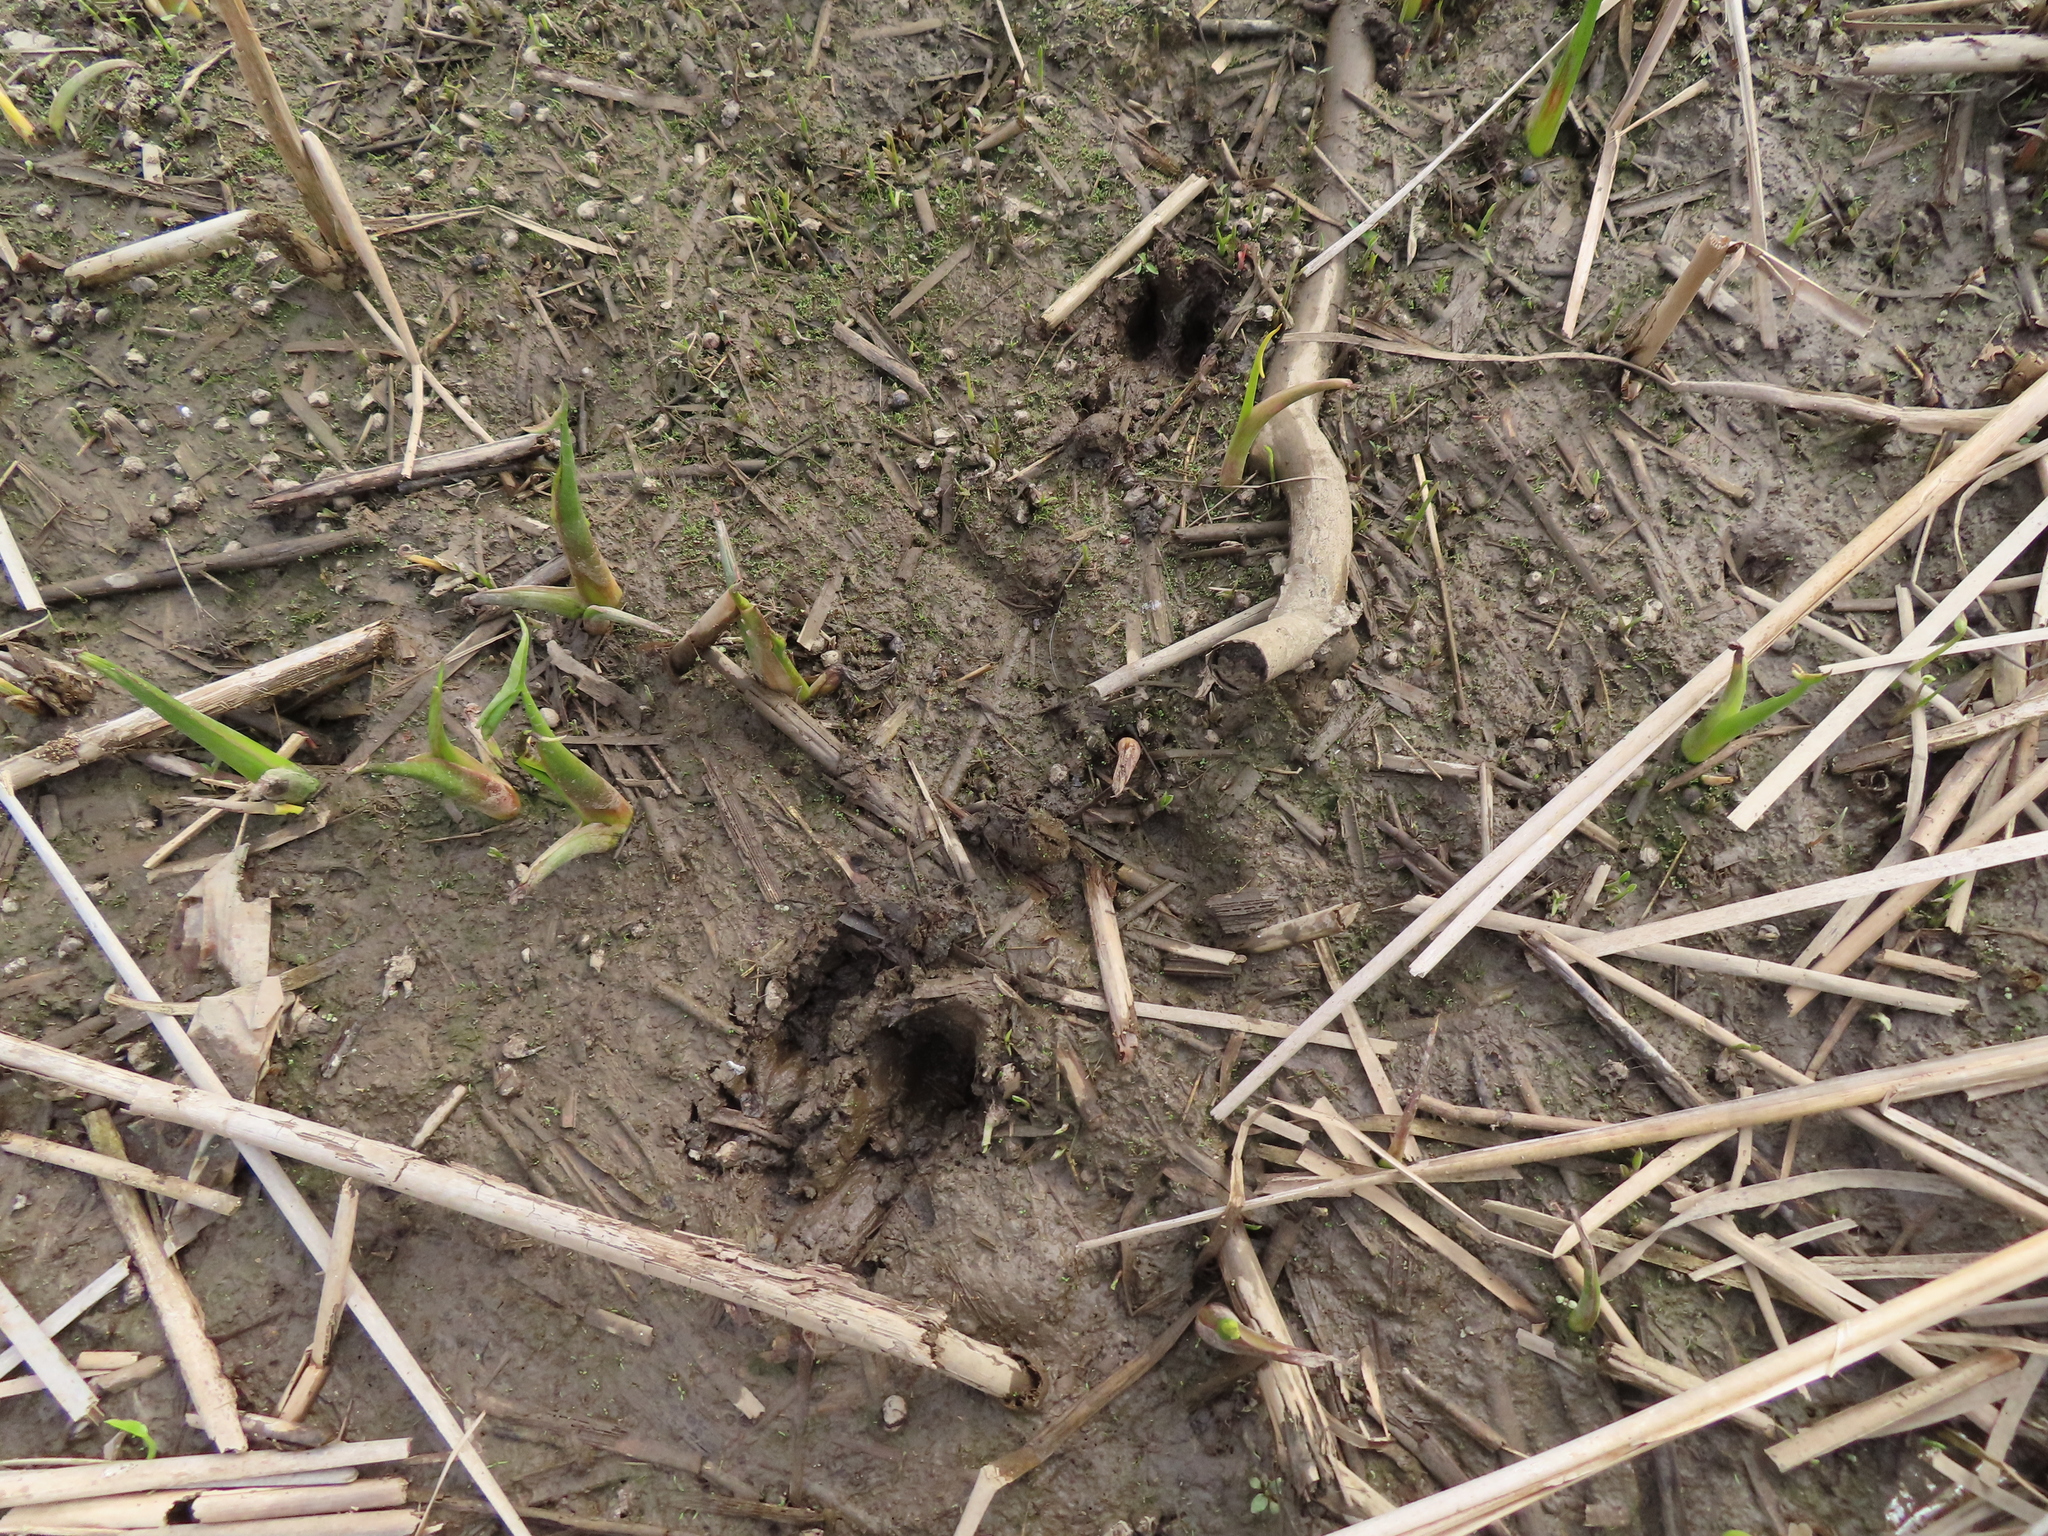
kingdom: Animalia
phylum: Chordata
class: Mammalia
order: Artiodactyla
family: Cervidae
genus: Odocoileus
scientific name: Odocoileus virginianus
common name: White-tailed deer
